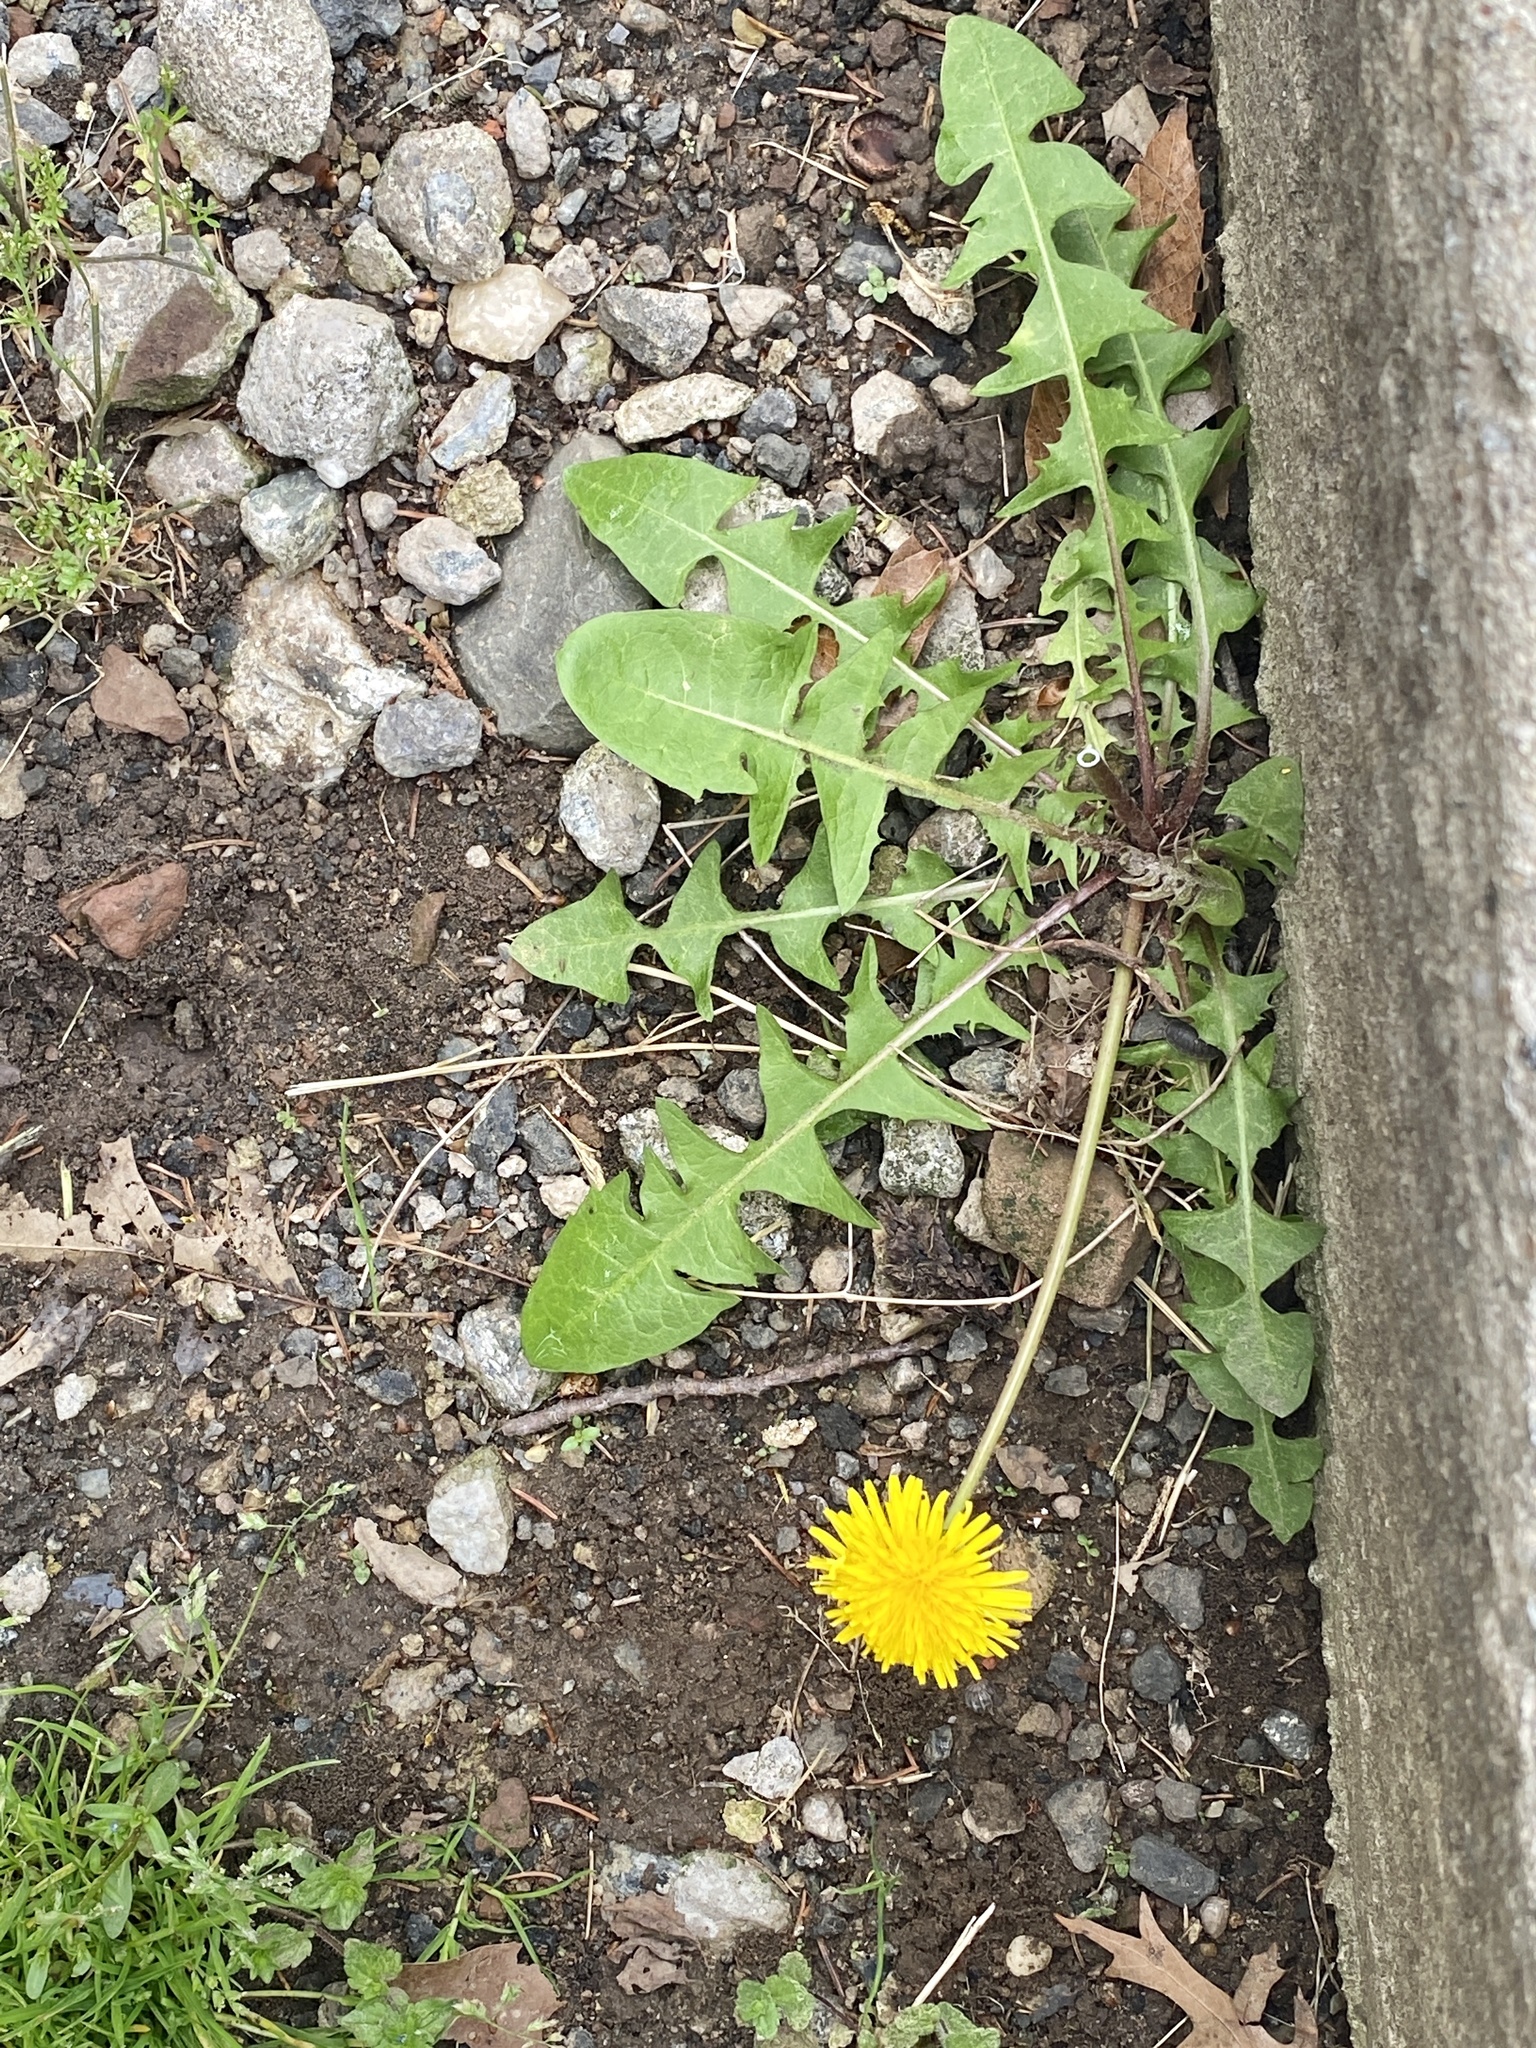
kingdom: Plantae
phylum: Tracheophyta
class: Magnoliopsida
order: Asterales
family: Asteraceae
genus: Taraxacum
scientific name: Taraxacum officinale
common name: Common dandelion
